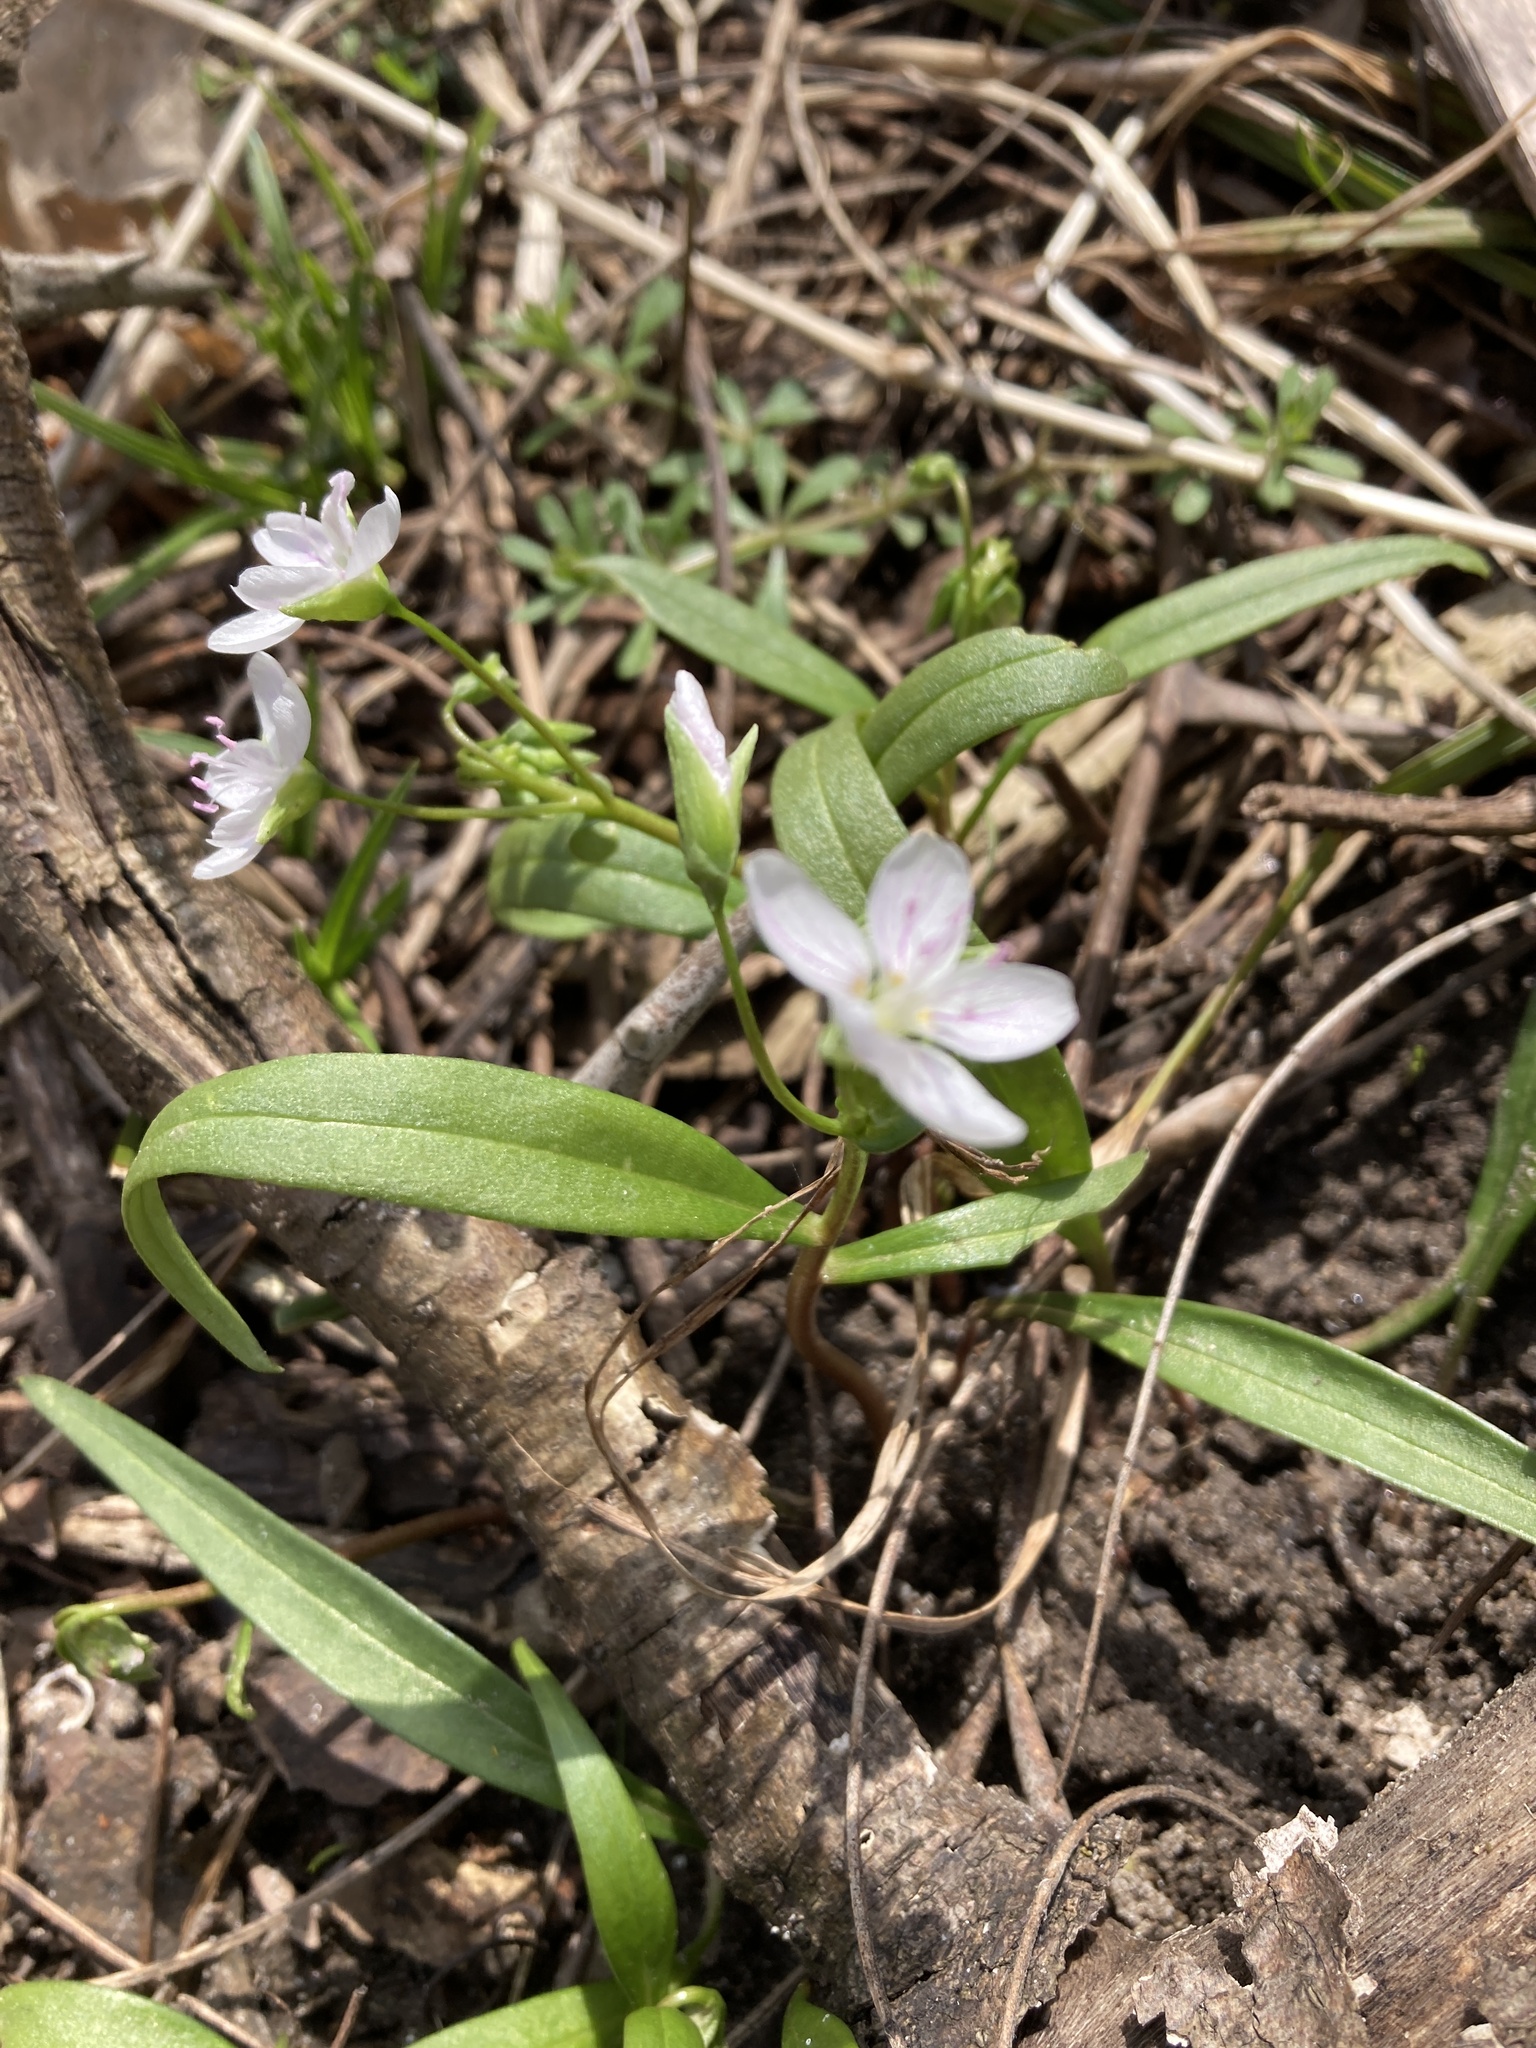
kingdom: Plantae
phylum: Tracheophyta
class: Magnoliopsida
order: Caryophyllales
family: Montiaceae
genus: Claytonia
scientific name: Claytonia virginica
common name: Virginia springbeauty
